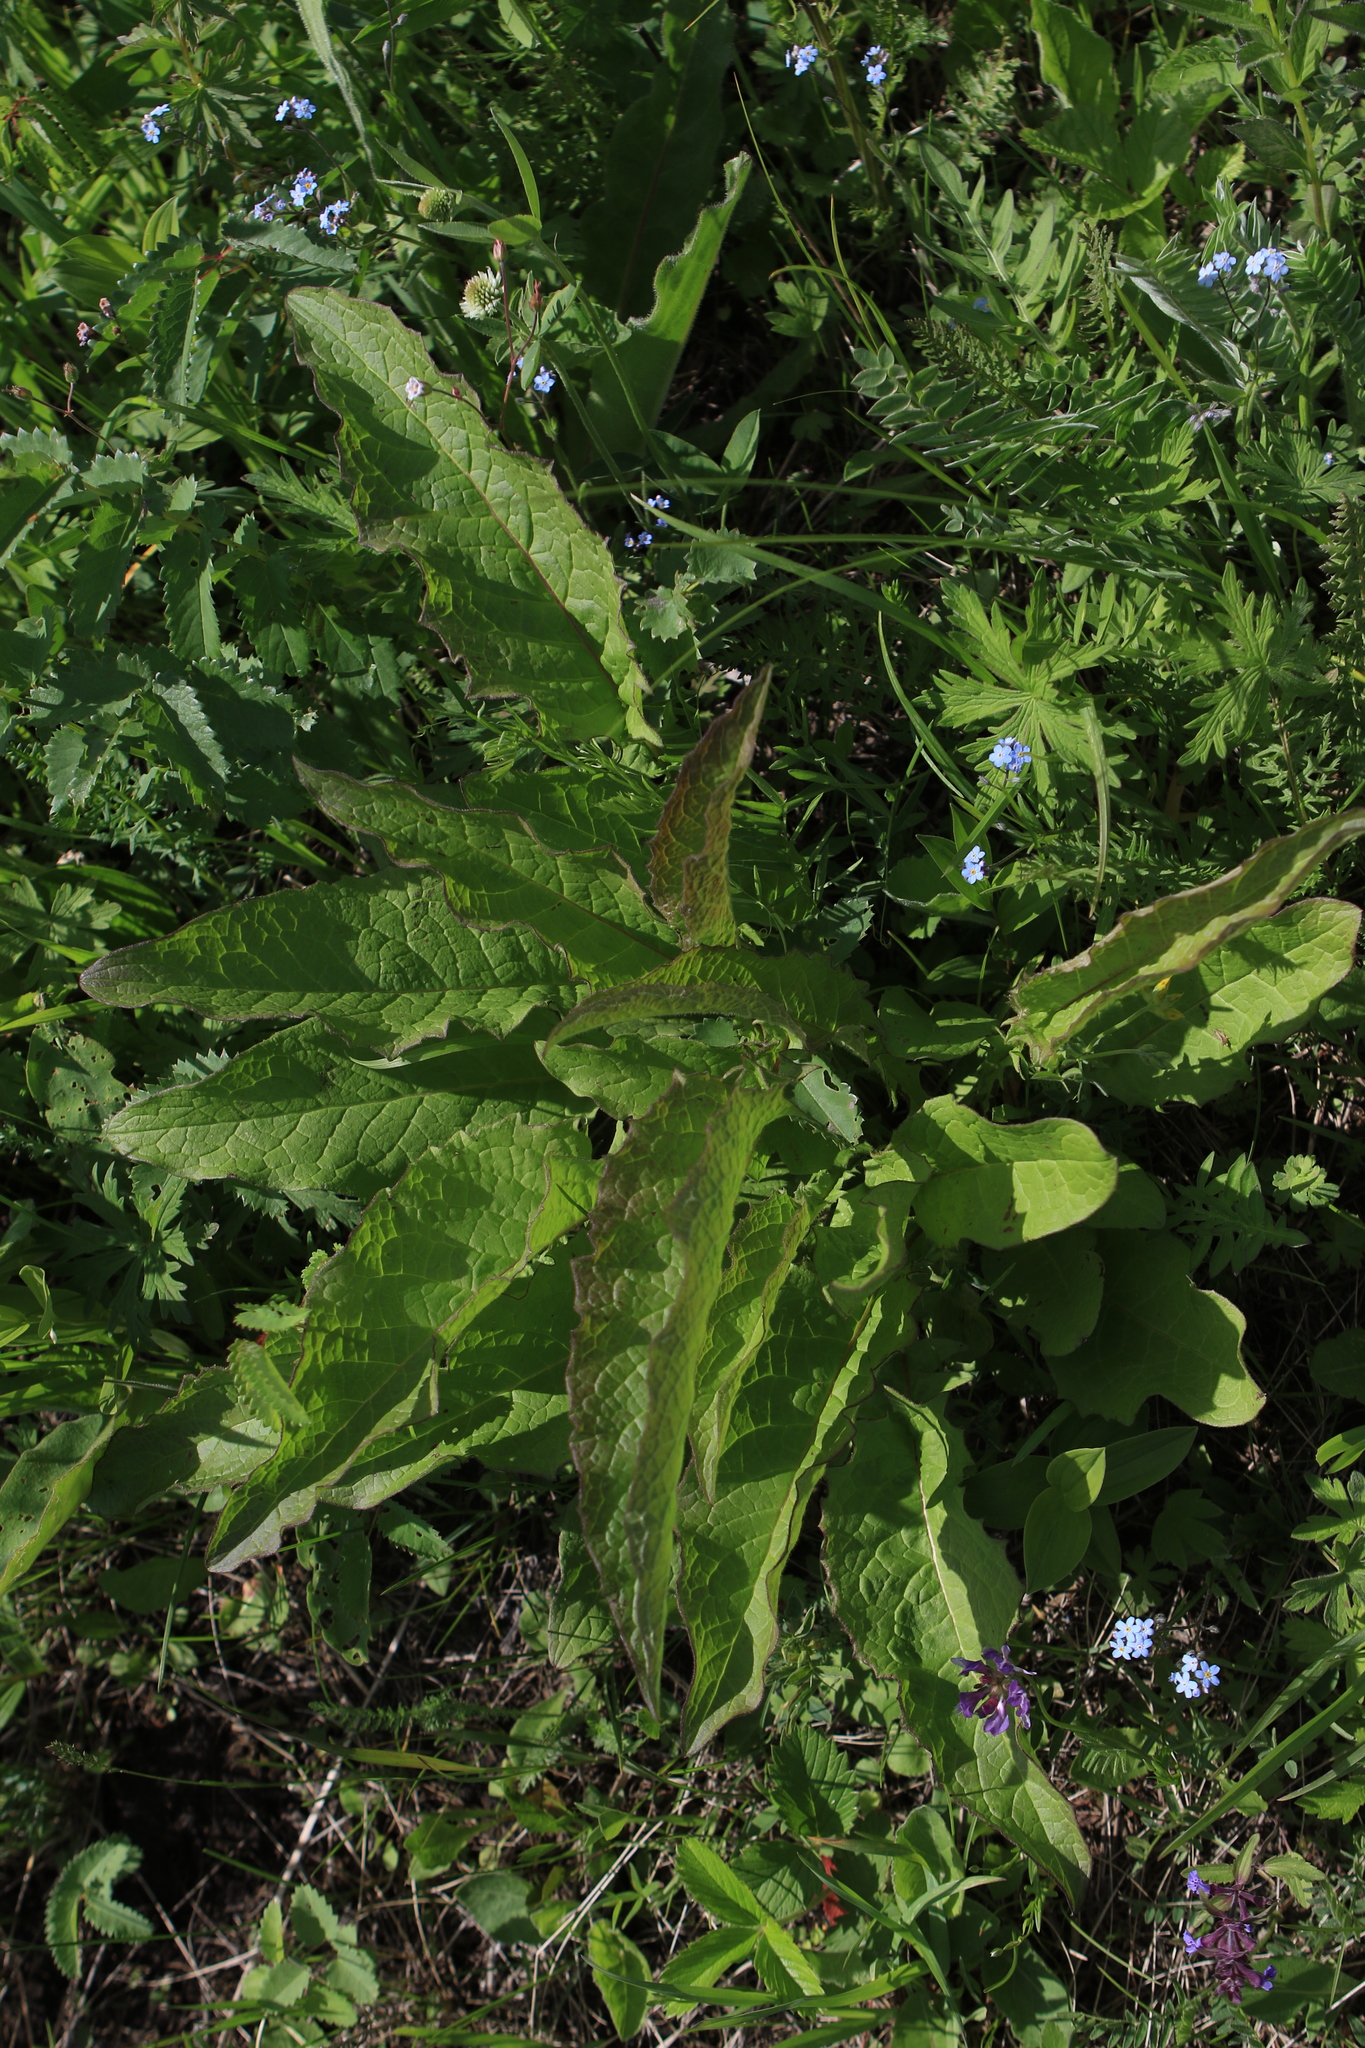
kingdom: Plantae
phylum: Tracheophyta
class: Magnoliopsida
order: Asterales
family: Asteraceae
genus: Crepis
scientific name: Crepis sibirica
